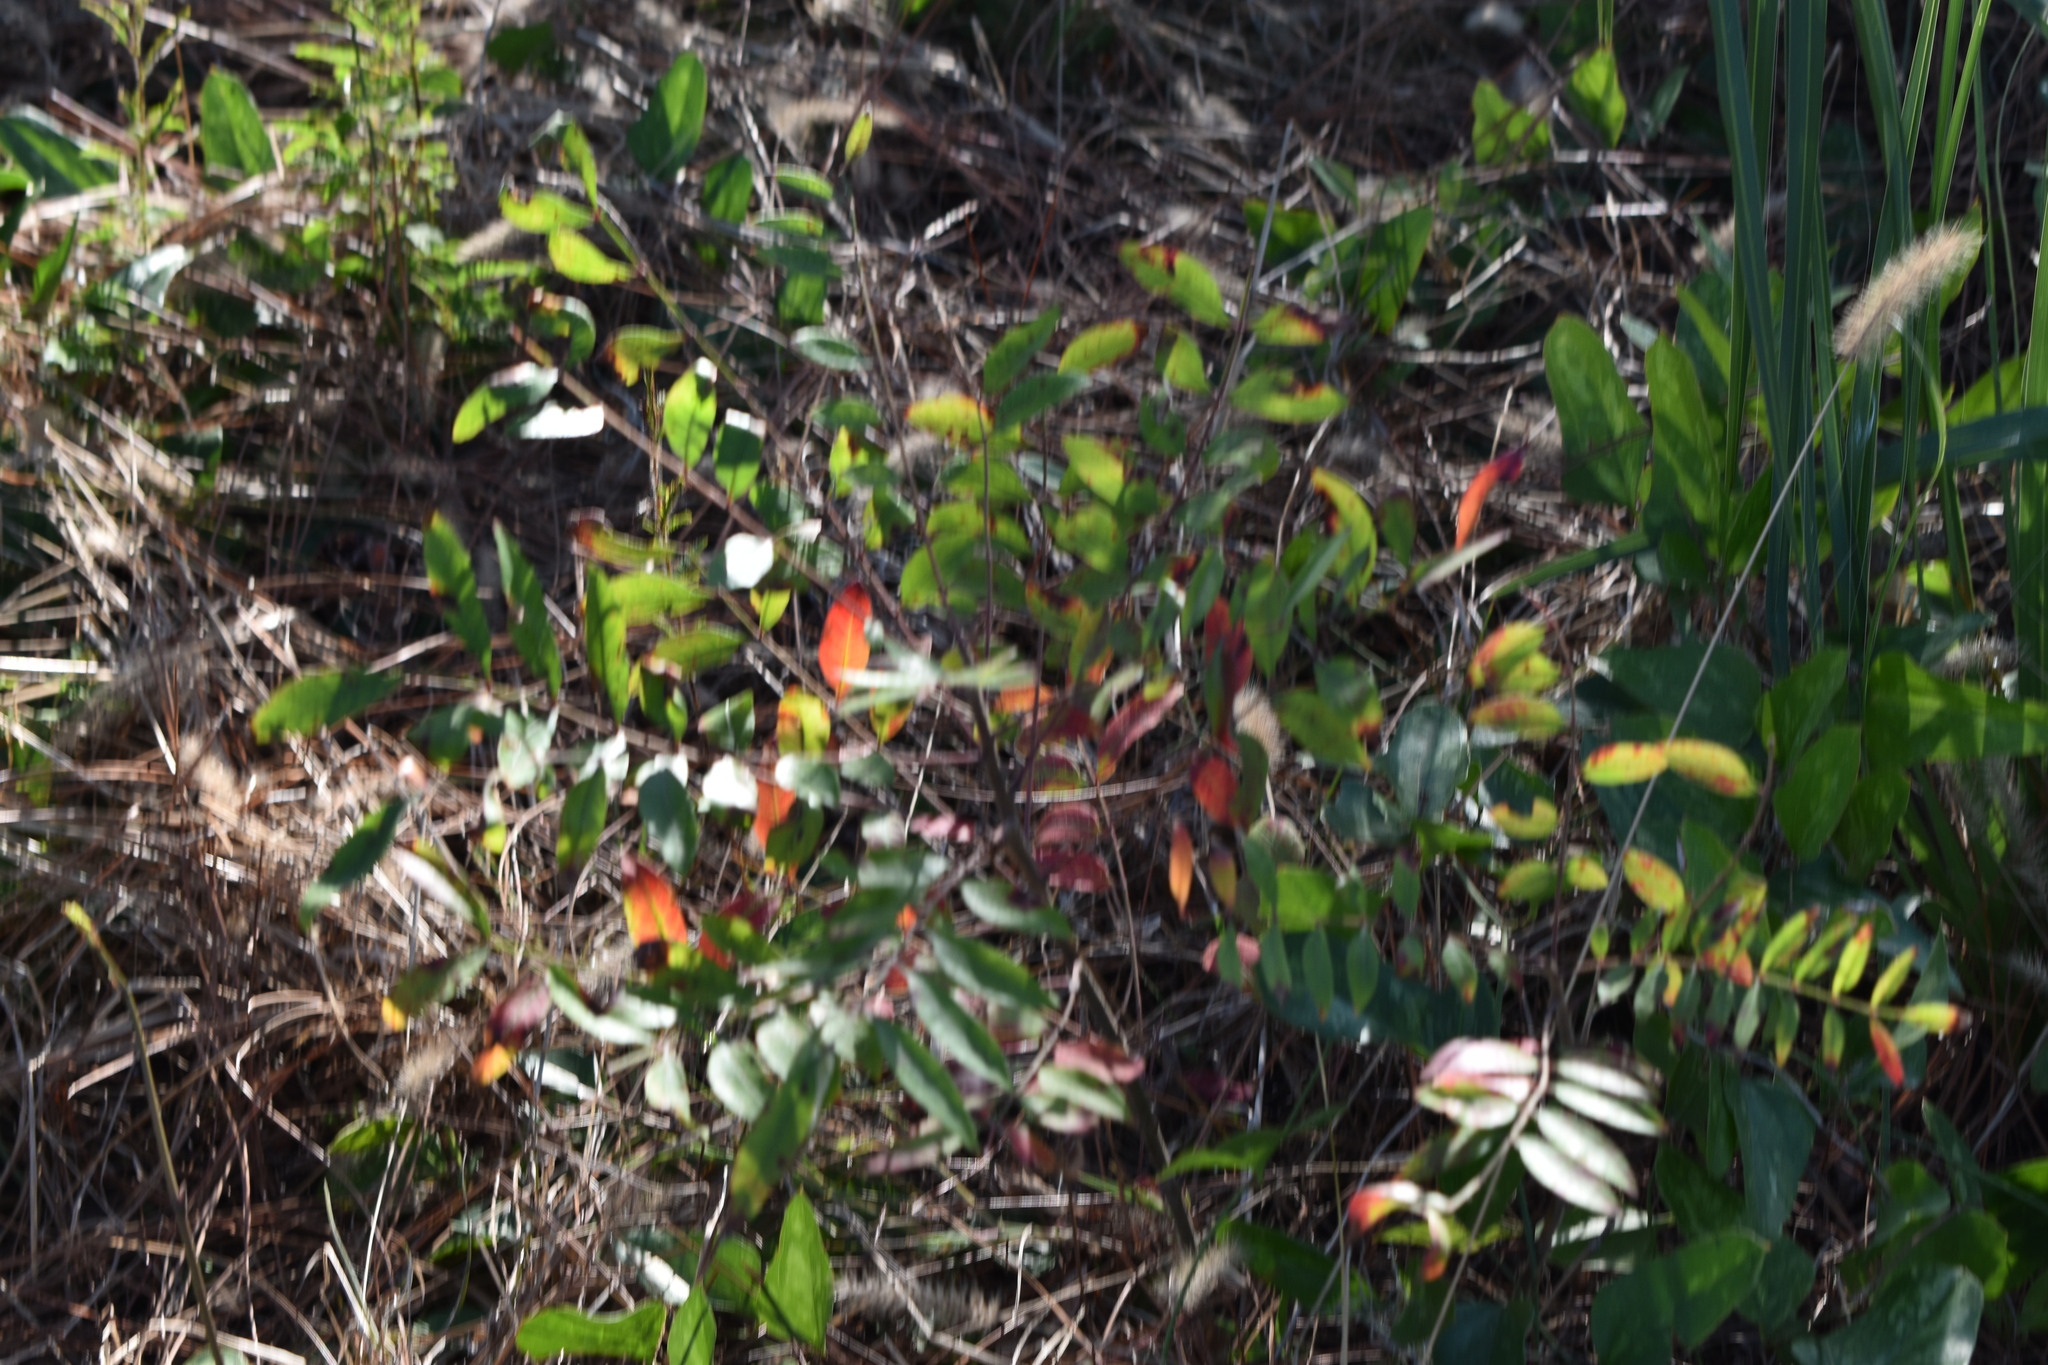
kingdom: Plantae
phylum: Tracheophyta
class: Magnoliopsida
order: Sapindales
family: Anacardiaceae
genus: Rhus
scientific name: Rhus copallina
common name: Shining sumac
